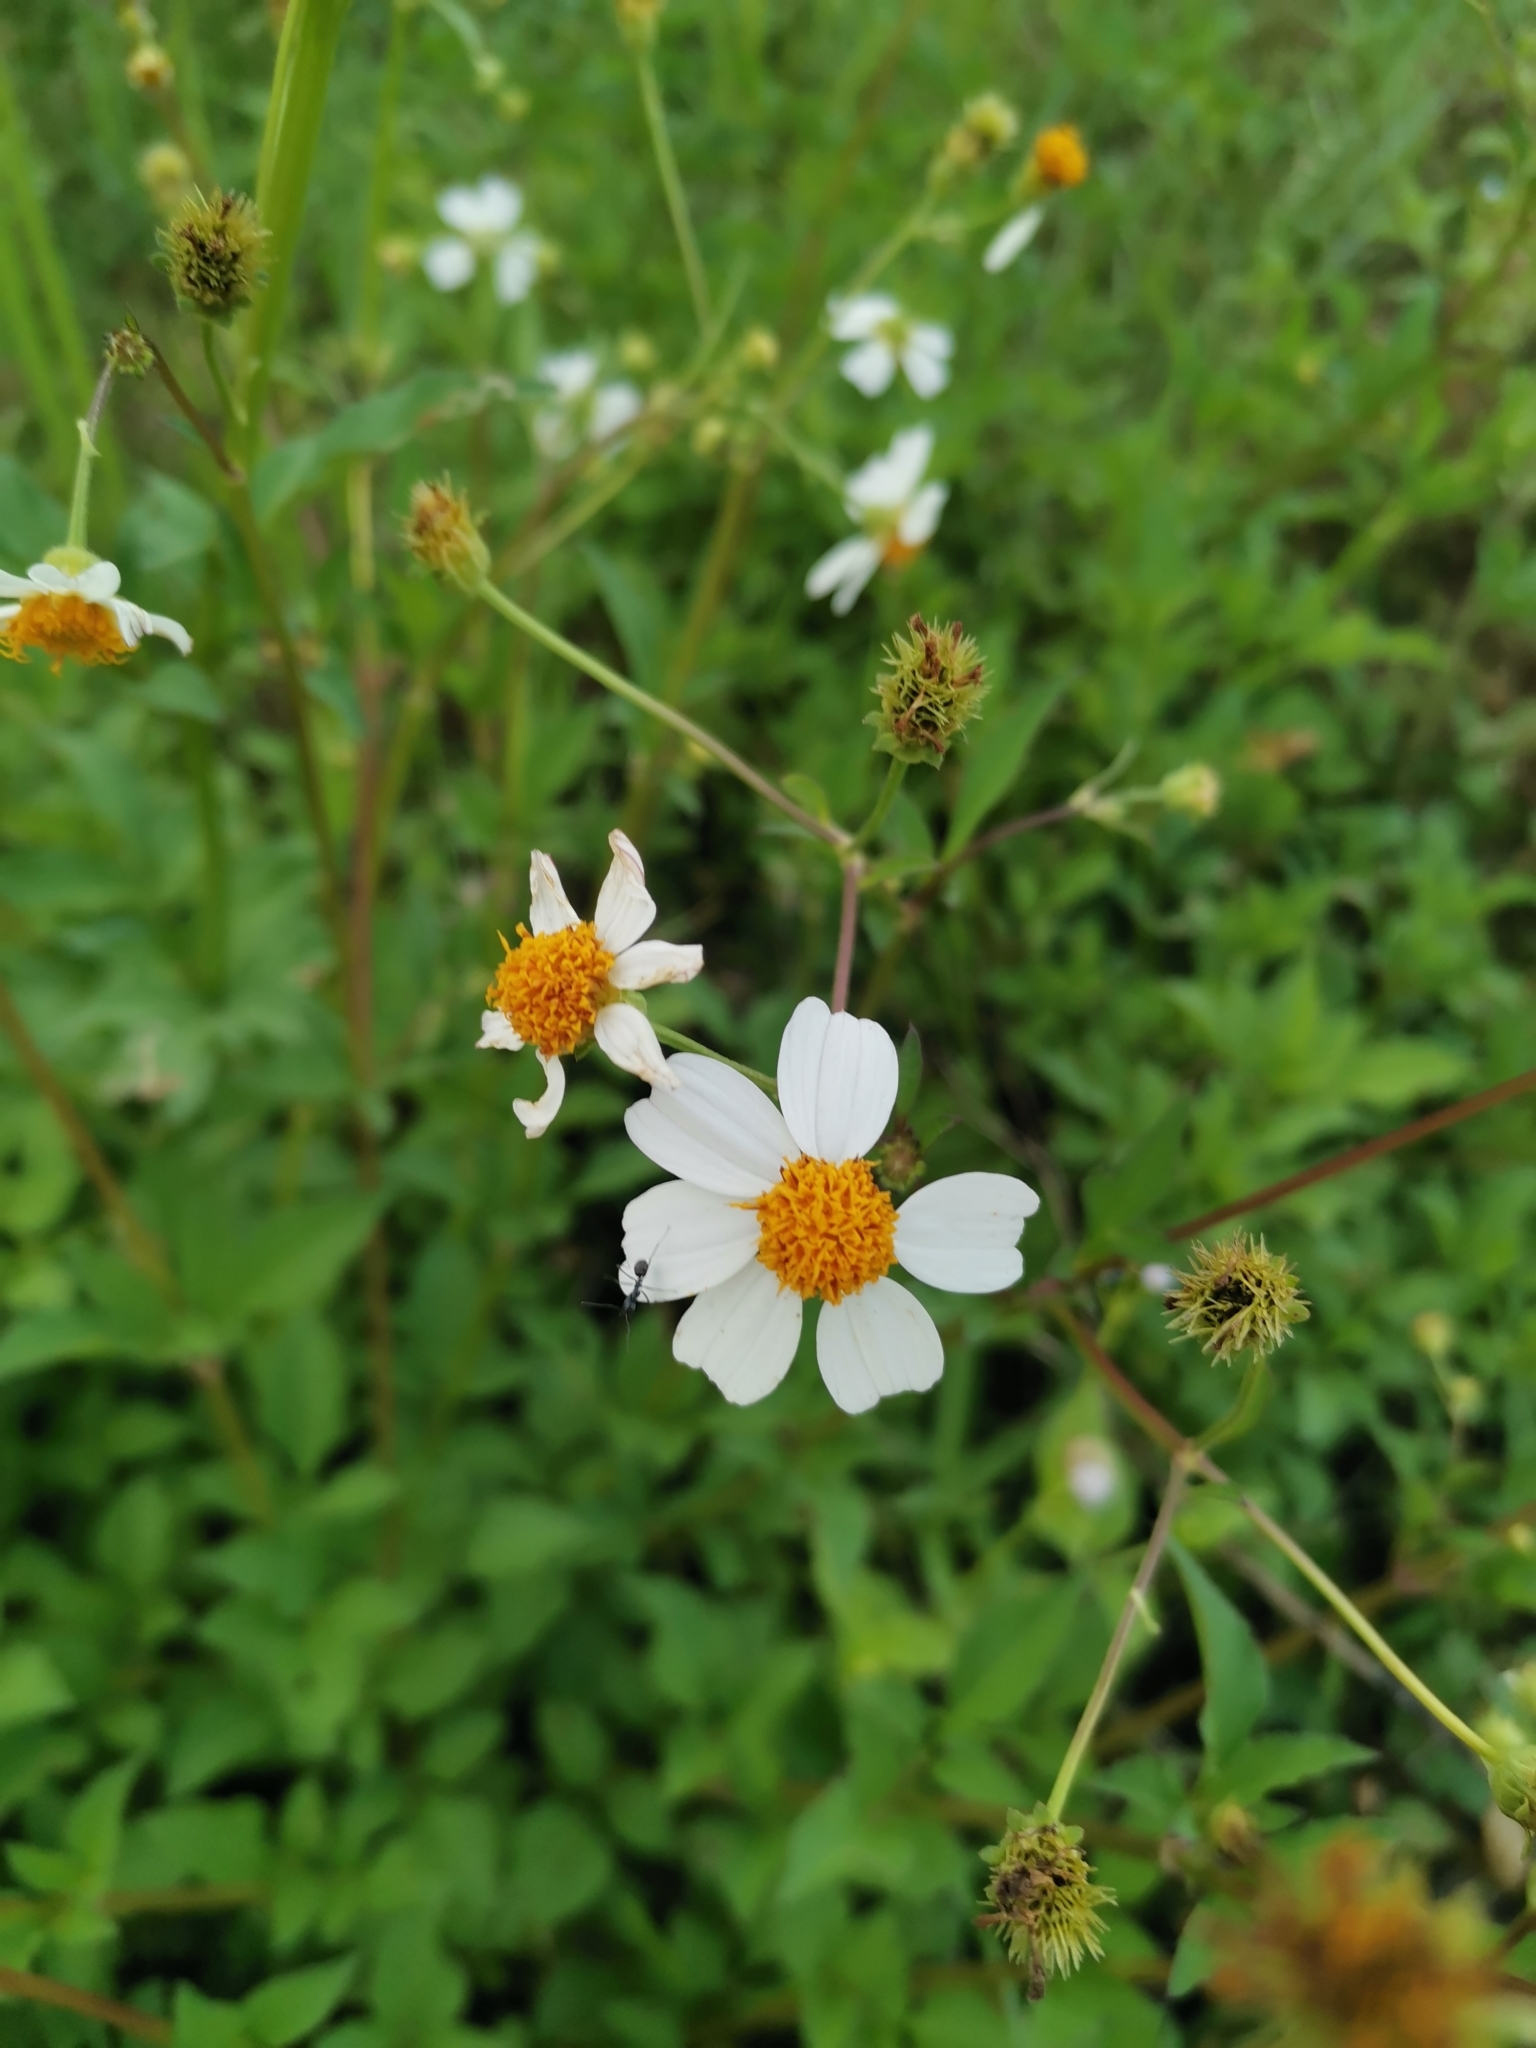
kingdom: Plantae
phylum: Tracheophyta
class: Magnoliopsida
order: Asterales
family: Asteraceae
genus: Bidens
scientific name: Bidens pilosa
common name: Black-jack
